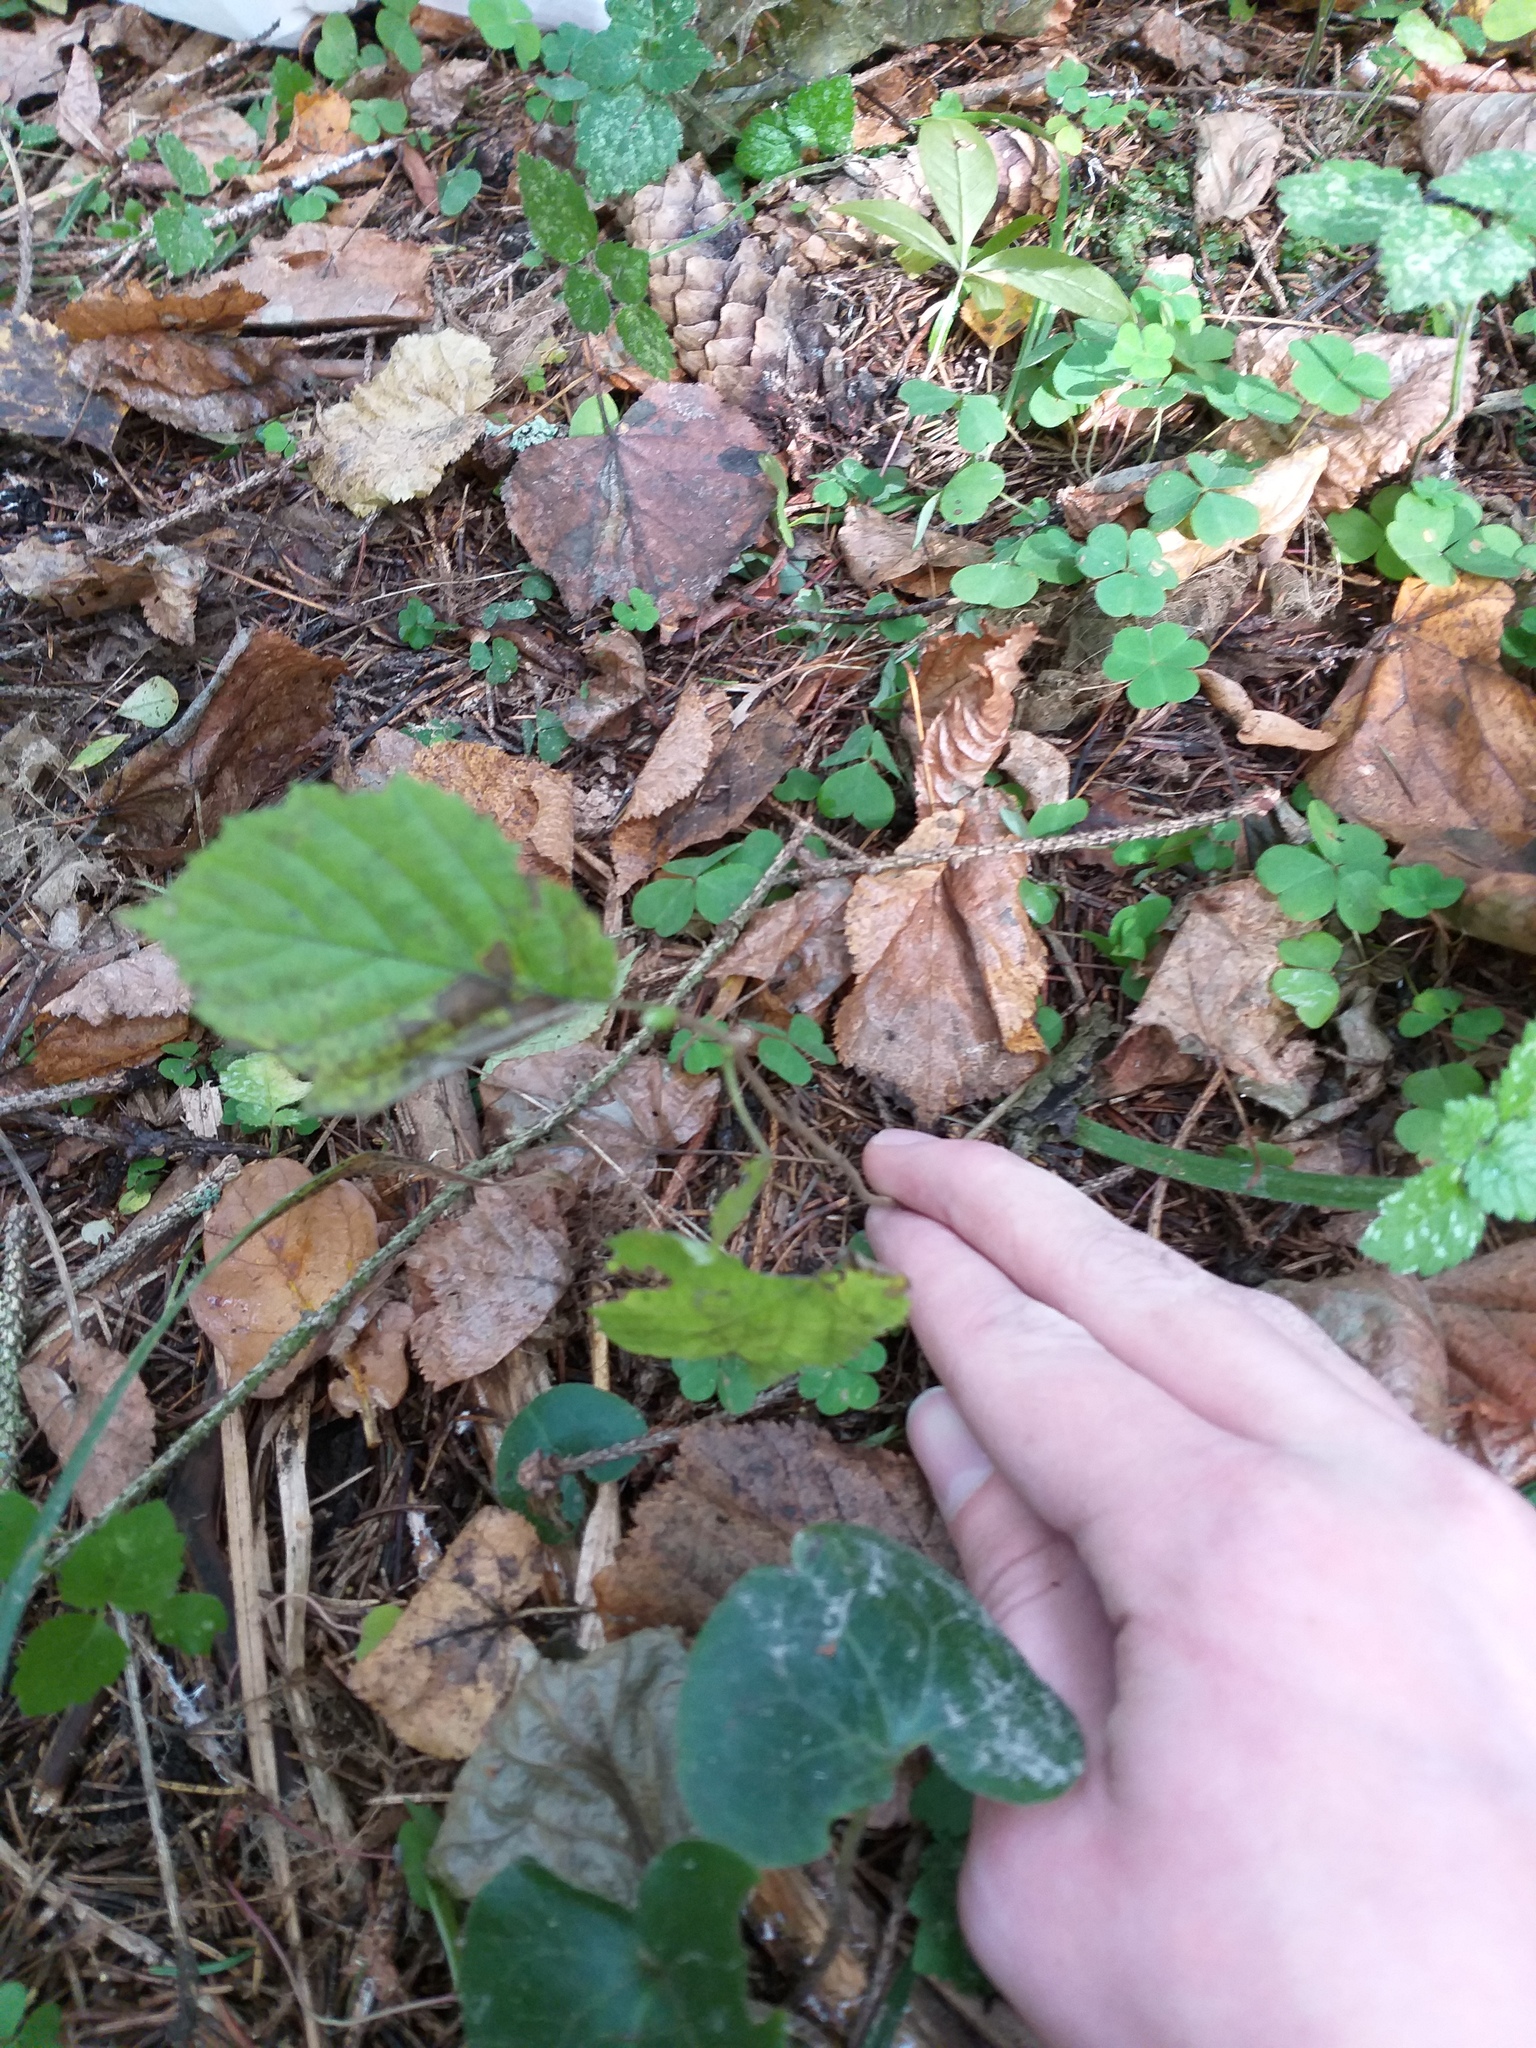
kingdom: Plantae
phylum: Tracheophyta
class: Magnoliopsida
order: Fagales
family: Betulaceae
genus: Corylus
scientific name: Corylus avellana
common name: European hazel
